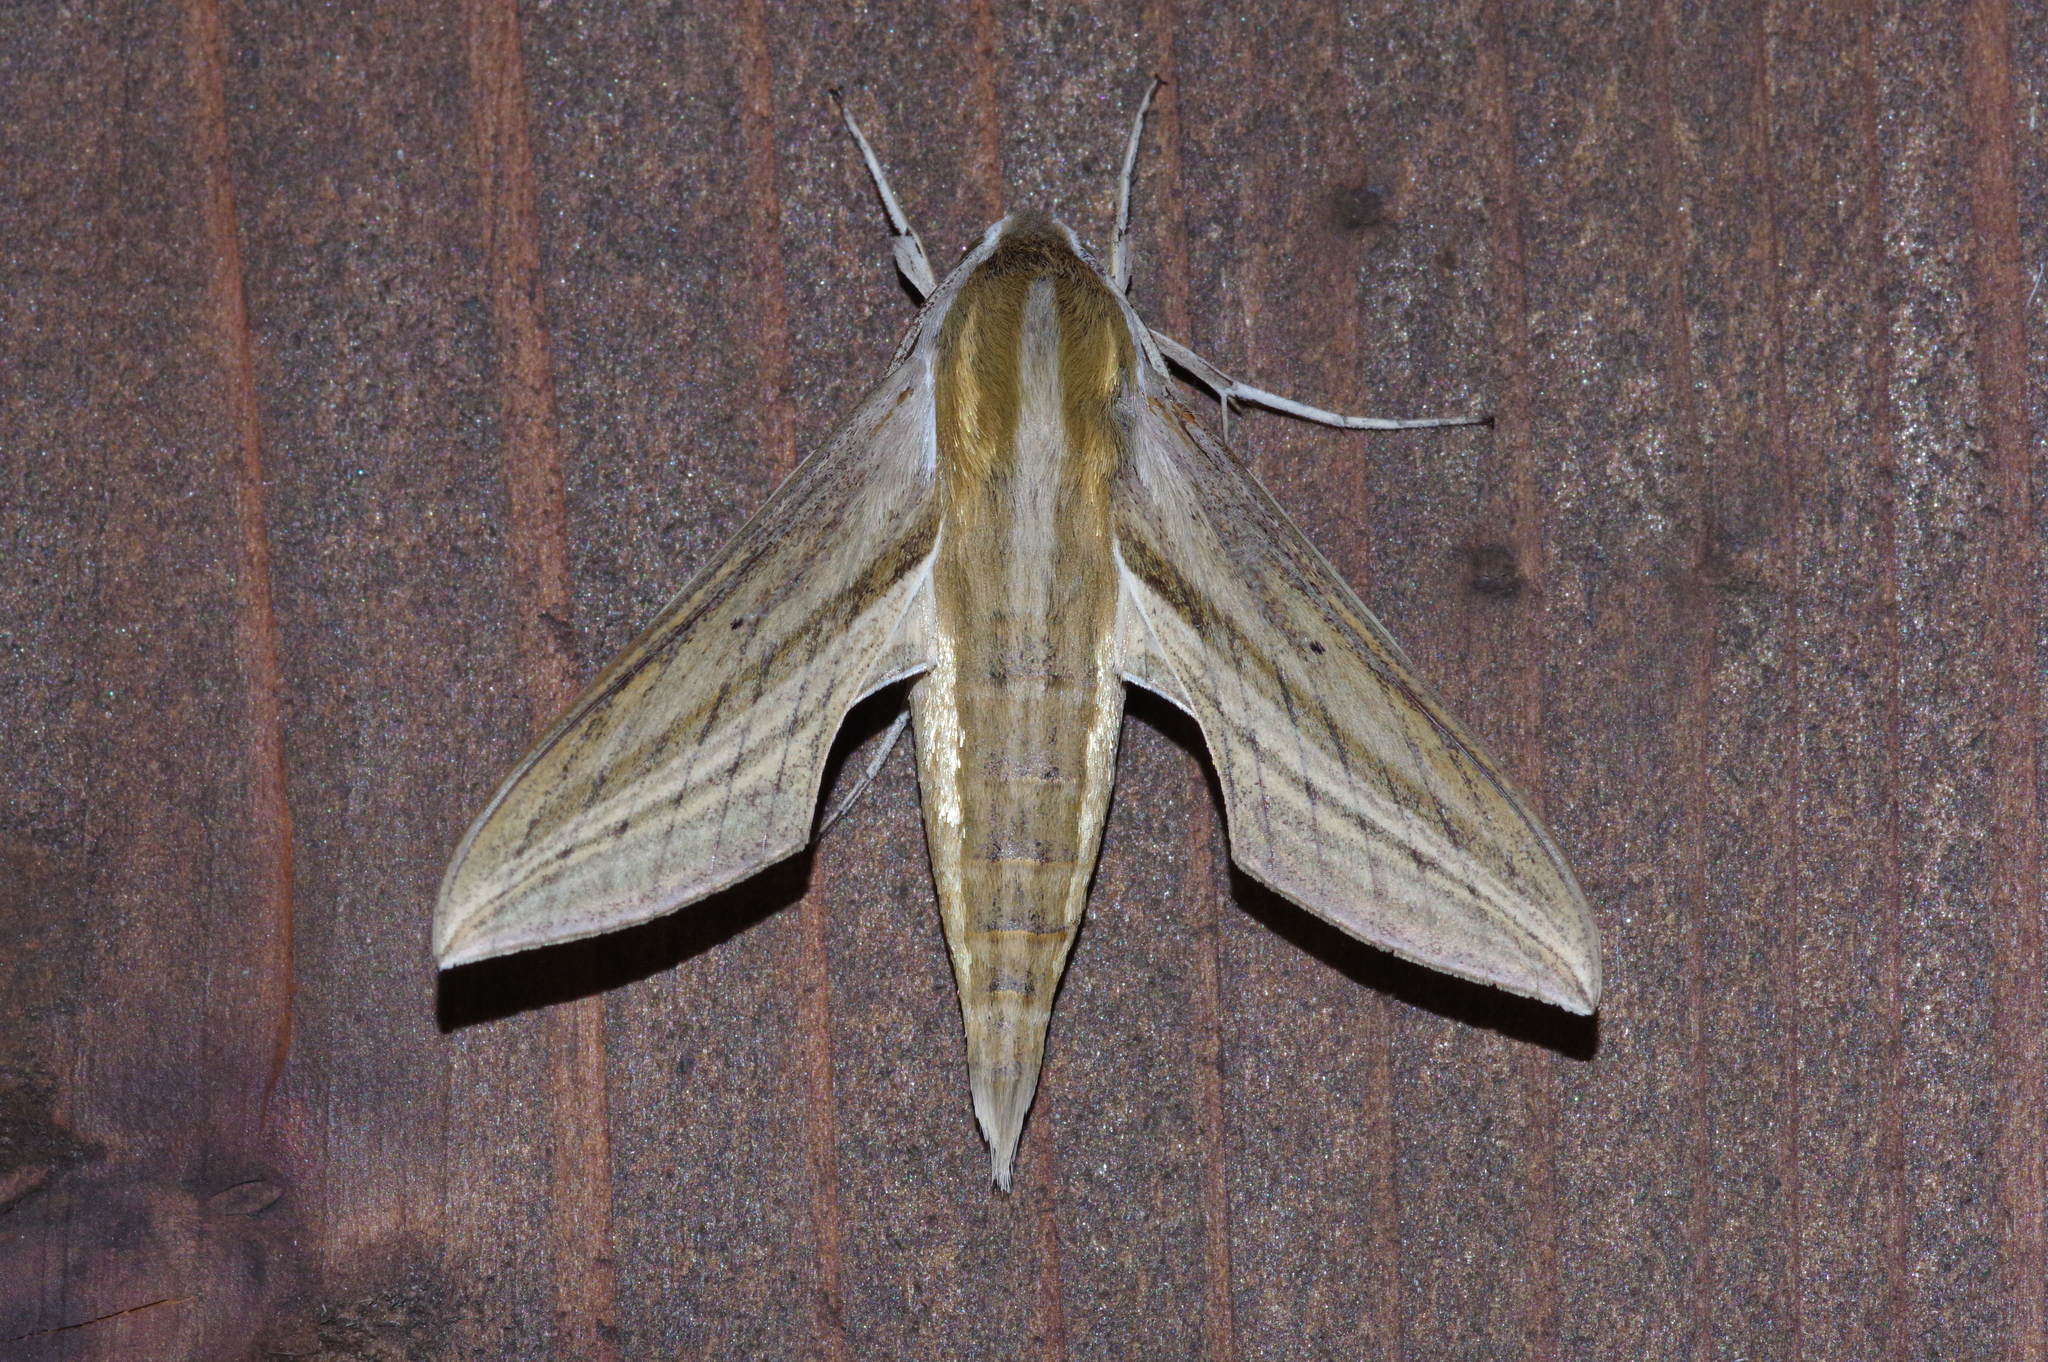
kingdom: Animalia
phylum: Arthropoda
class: Insecta
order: Lepidoptera
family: Sphingidae
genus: Theretra
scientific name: Theretra japonica
